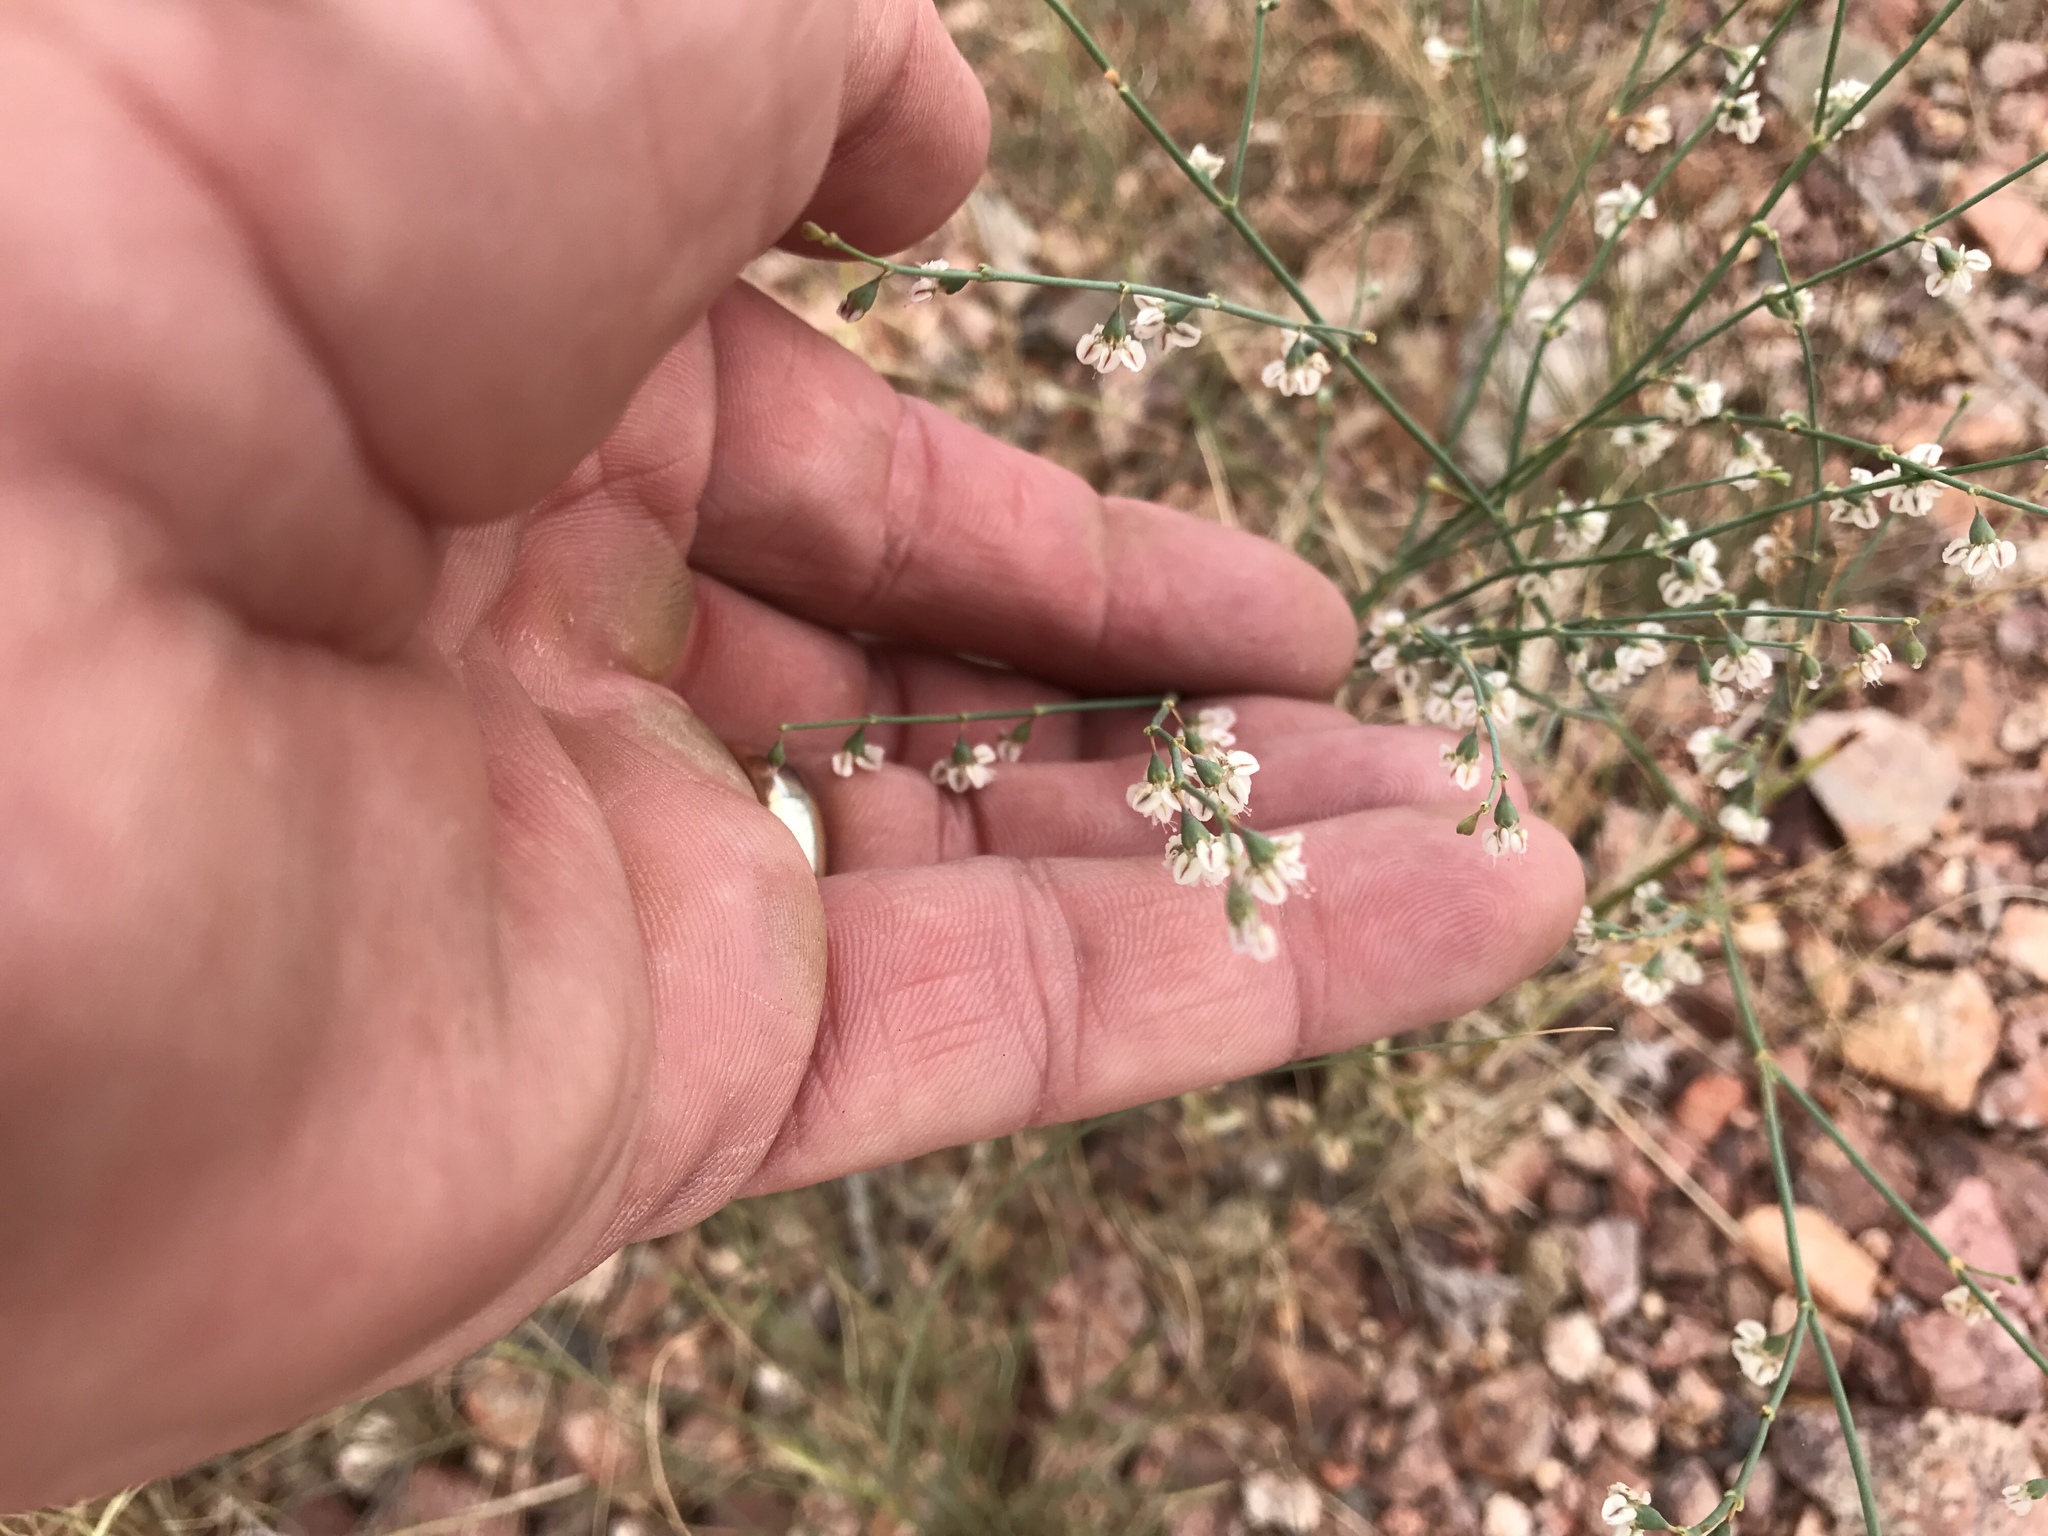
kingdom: Plantae
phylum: Tracheophyta
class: Magnoliopsida
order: Caryophyllales
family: Polygonaceae
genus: Eriogonum
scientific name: Eriogonum deflexum
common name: Skeleton-weed
